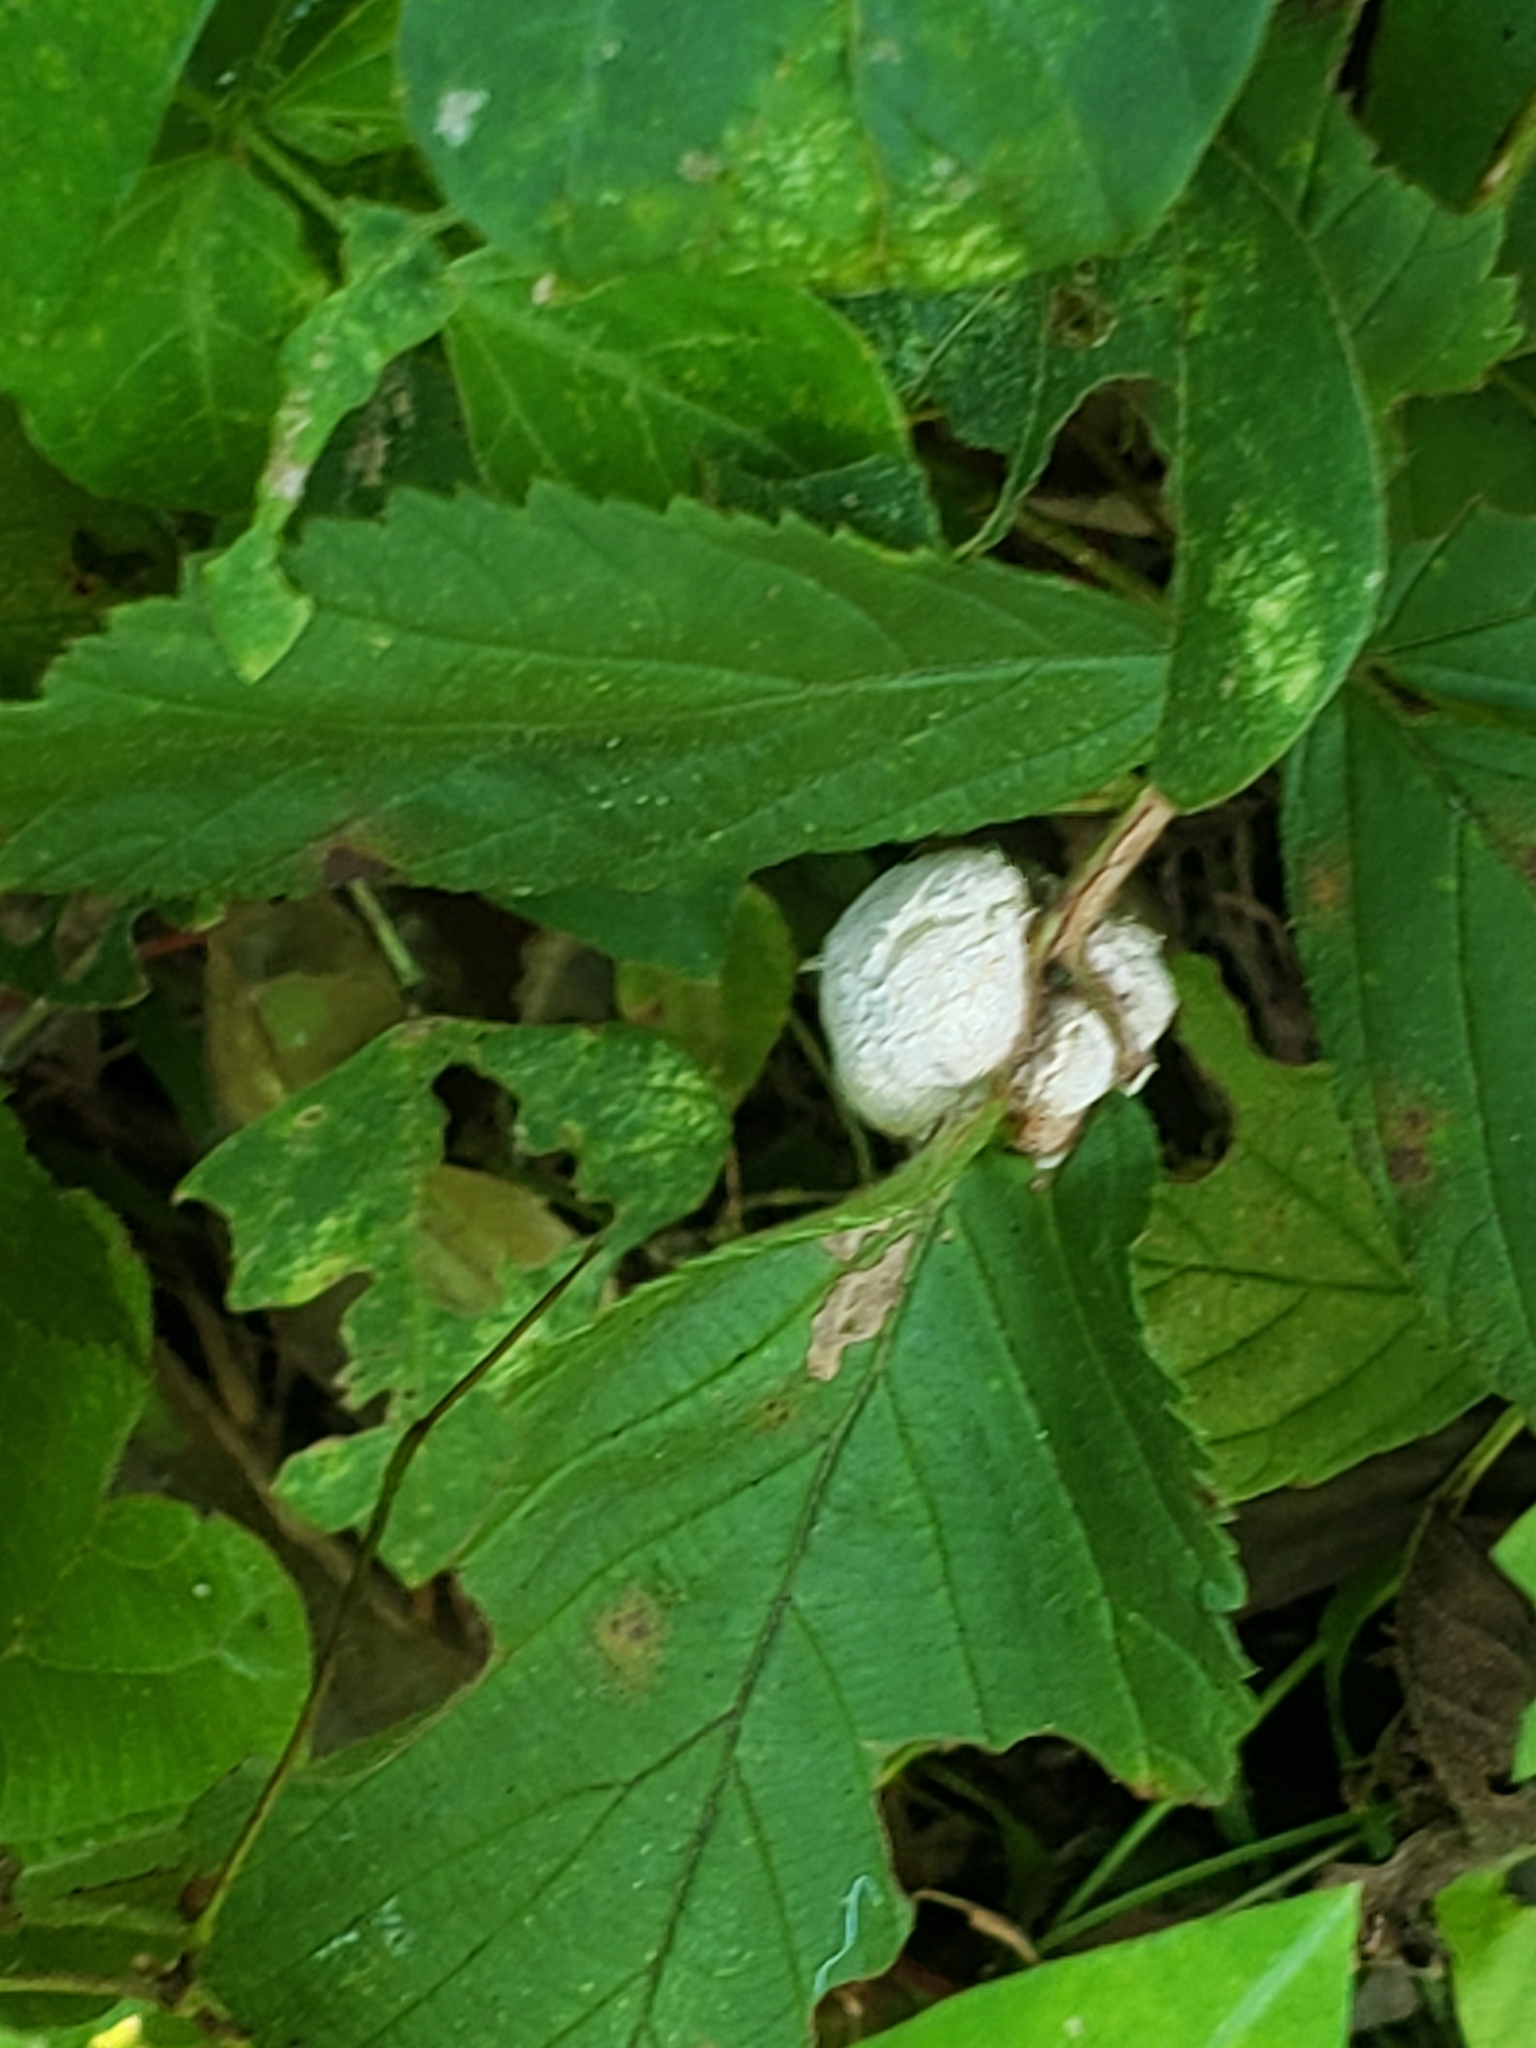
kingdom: Animalia
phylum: Arthropoda
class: Insecta
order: Diptera
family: Cecidomyiidae
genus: Neolasioptera
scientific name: Neolasioptera farinosa
